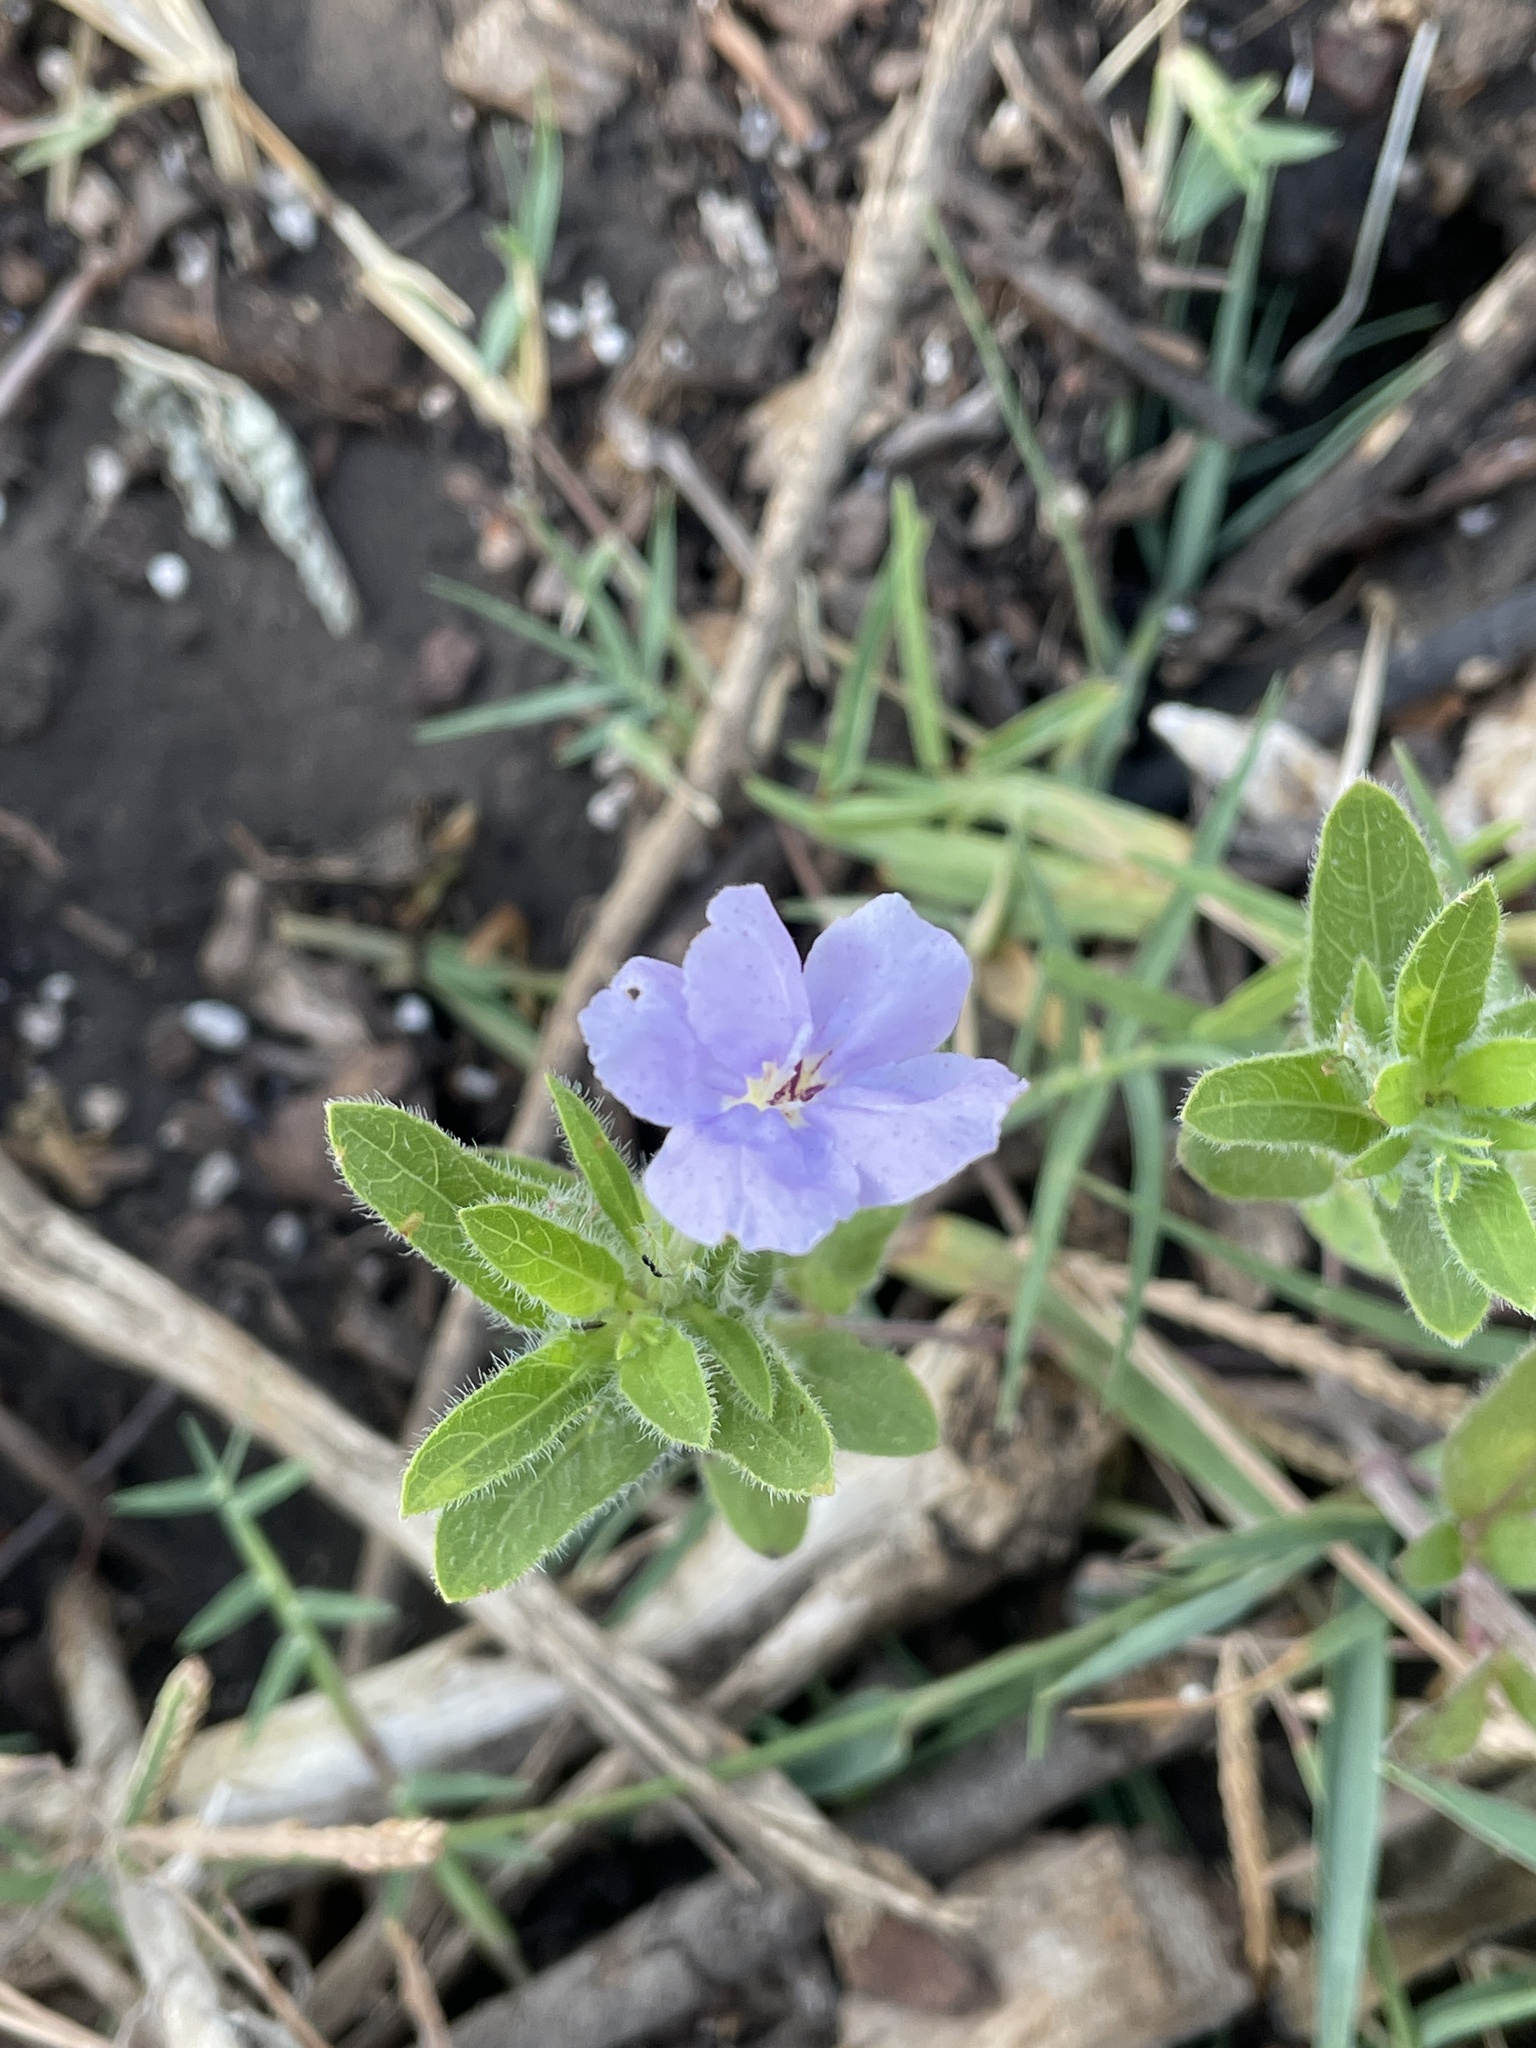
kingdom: Plantae
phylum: Tracheophyta
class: Magnoliopsida
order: Lamiales
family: Acanthaceae
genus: Ruellia
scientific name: Ruellia humilis
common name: Fringe-leaf ruellia
